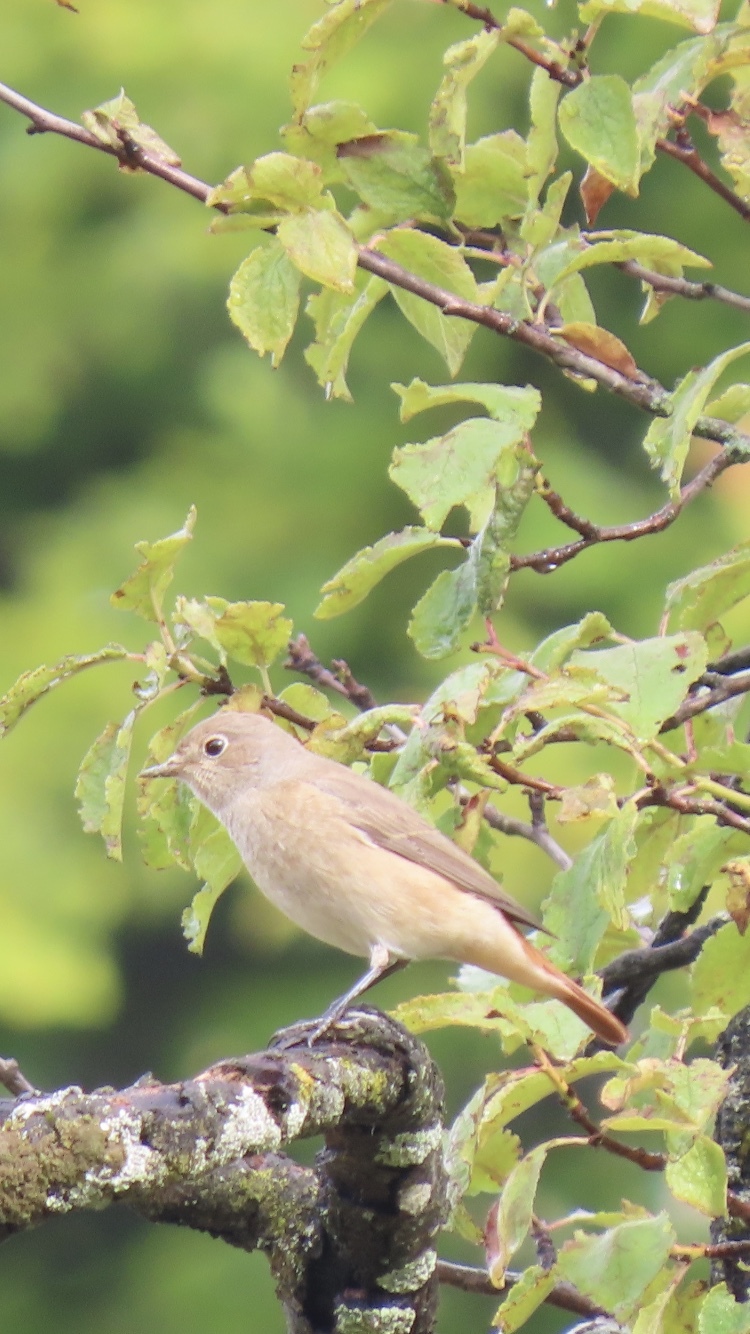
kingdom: Animalia
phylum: Chordata
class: Aves
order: Passeriformes
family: Muscicapidae
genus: Phoenicurus
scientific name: Phoenicurus phoenicurus
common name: Common redstart
